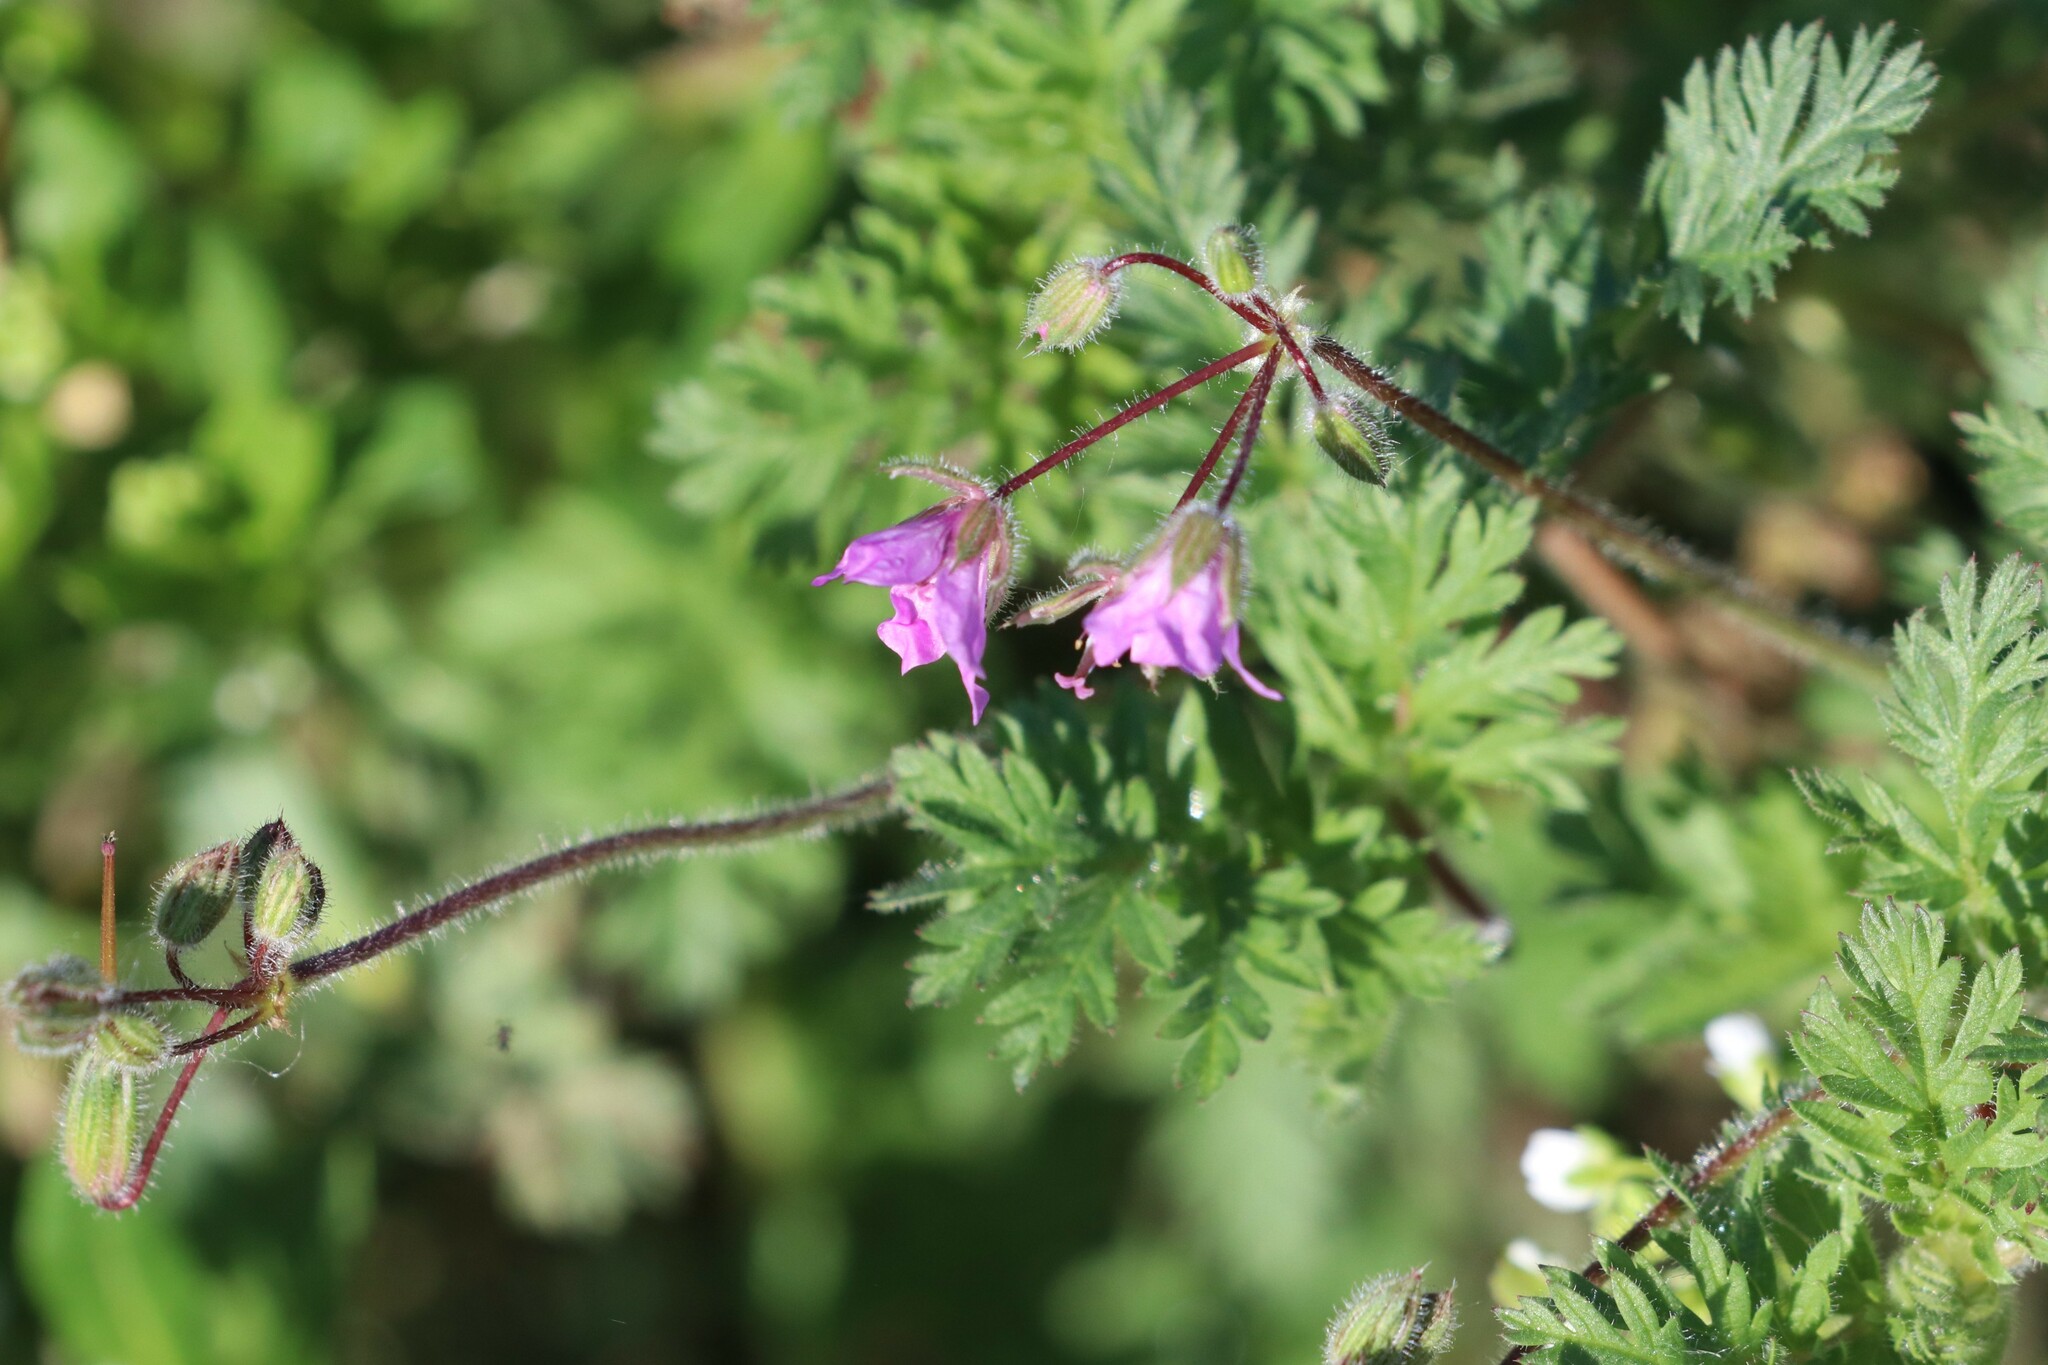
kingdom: Plantae
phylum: Tracheophyta
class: Magnoliopsida
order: Geraniales
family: Geraniaceae
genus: Erodium
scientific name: Erodium cicutarium
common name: Common stork's-bill
